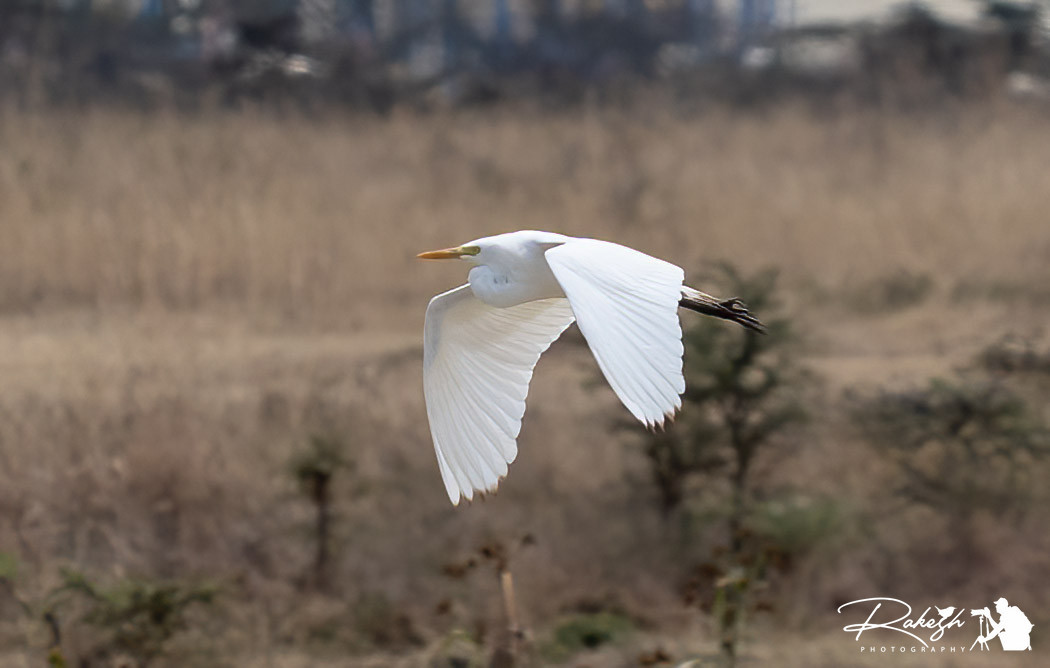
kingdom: Animalia
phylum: Chordata
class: Aves
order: Pelecaniformes
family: Ardeidae
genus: Bubulcus
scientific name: Bubulcus ibis
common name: Cattle egret
